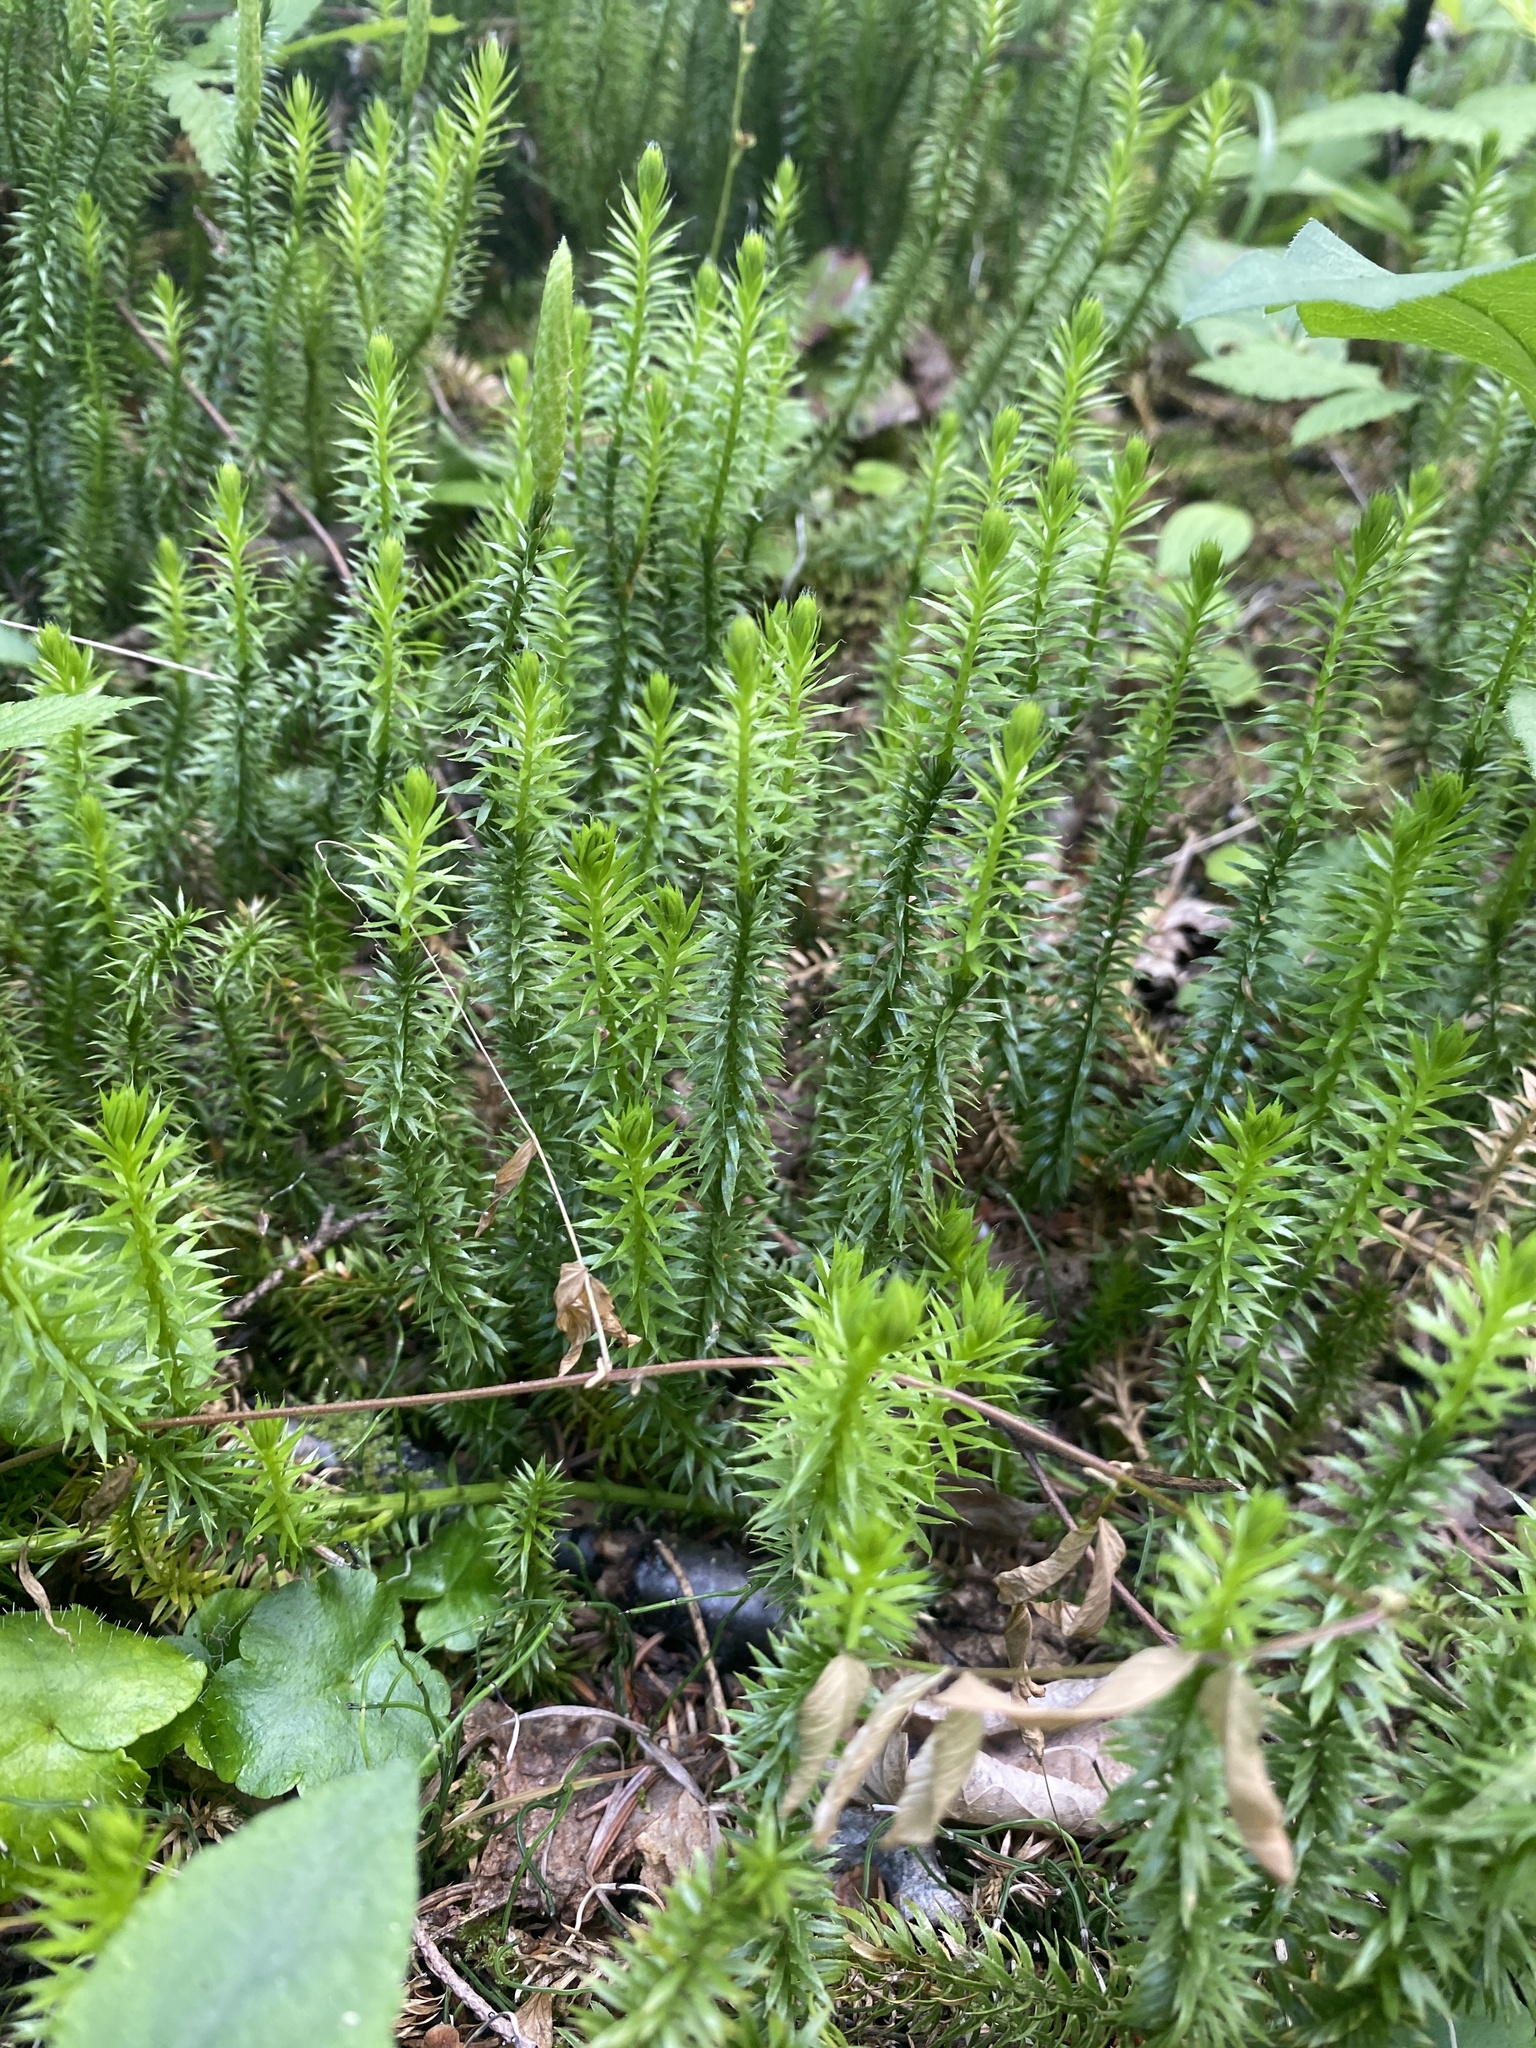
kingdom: Plantae
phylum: Tracheophyta
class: Lycopodiopsida
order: Lycopodiales
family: Lycopodiaceae
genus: Spinulum
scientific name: Spinulum annotinum
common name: Interrupted club-moss
